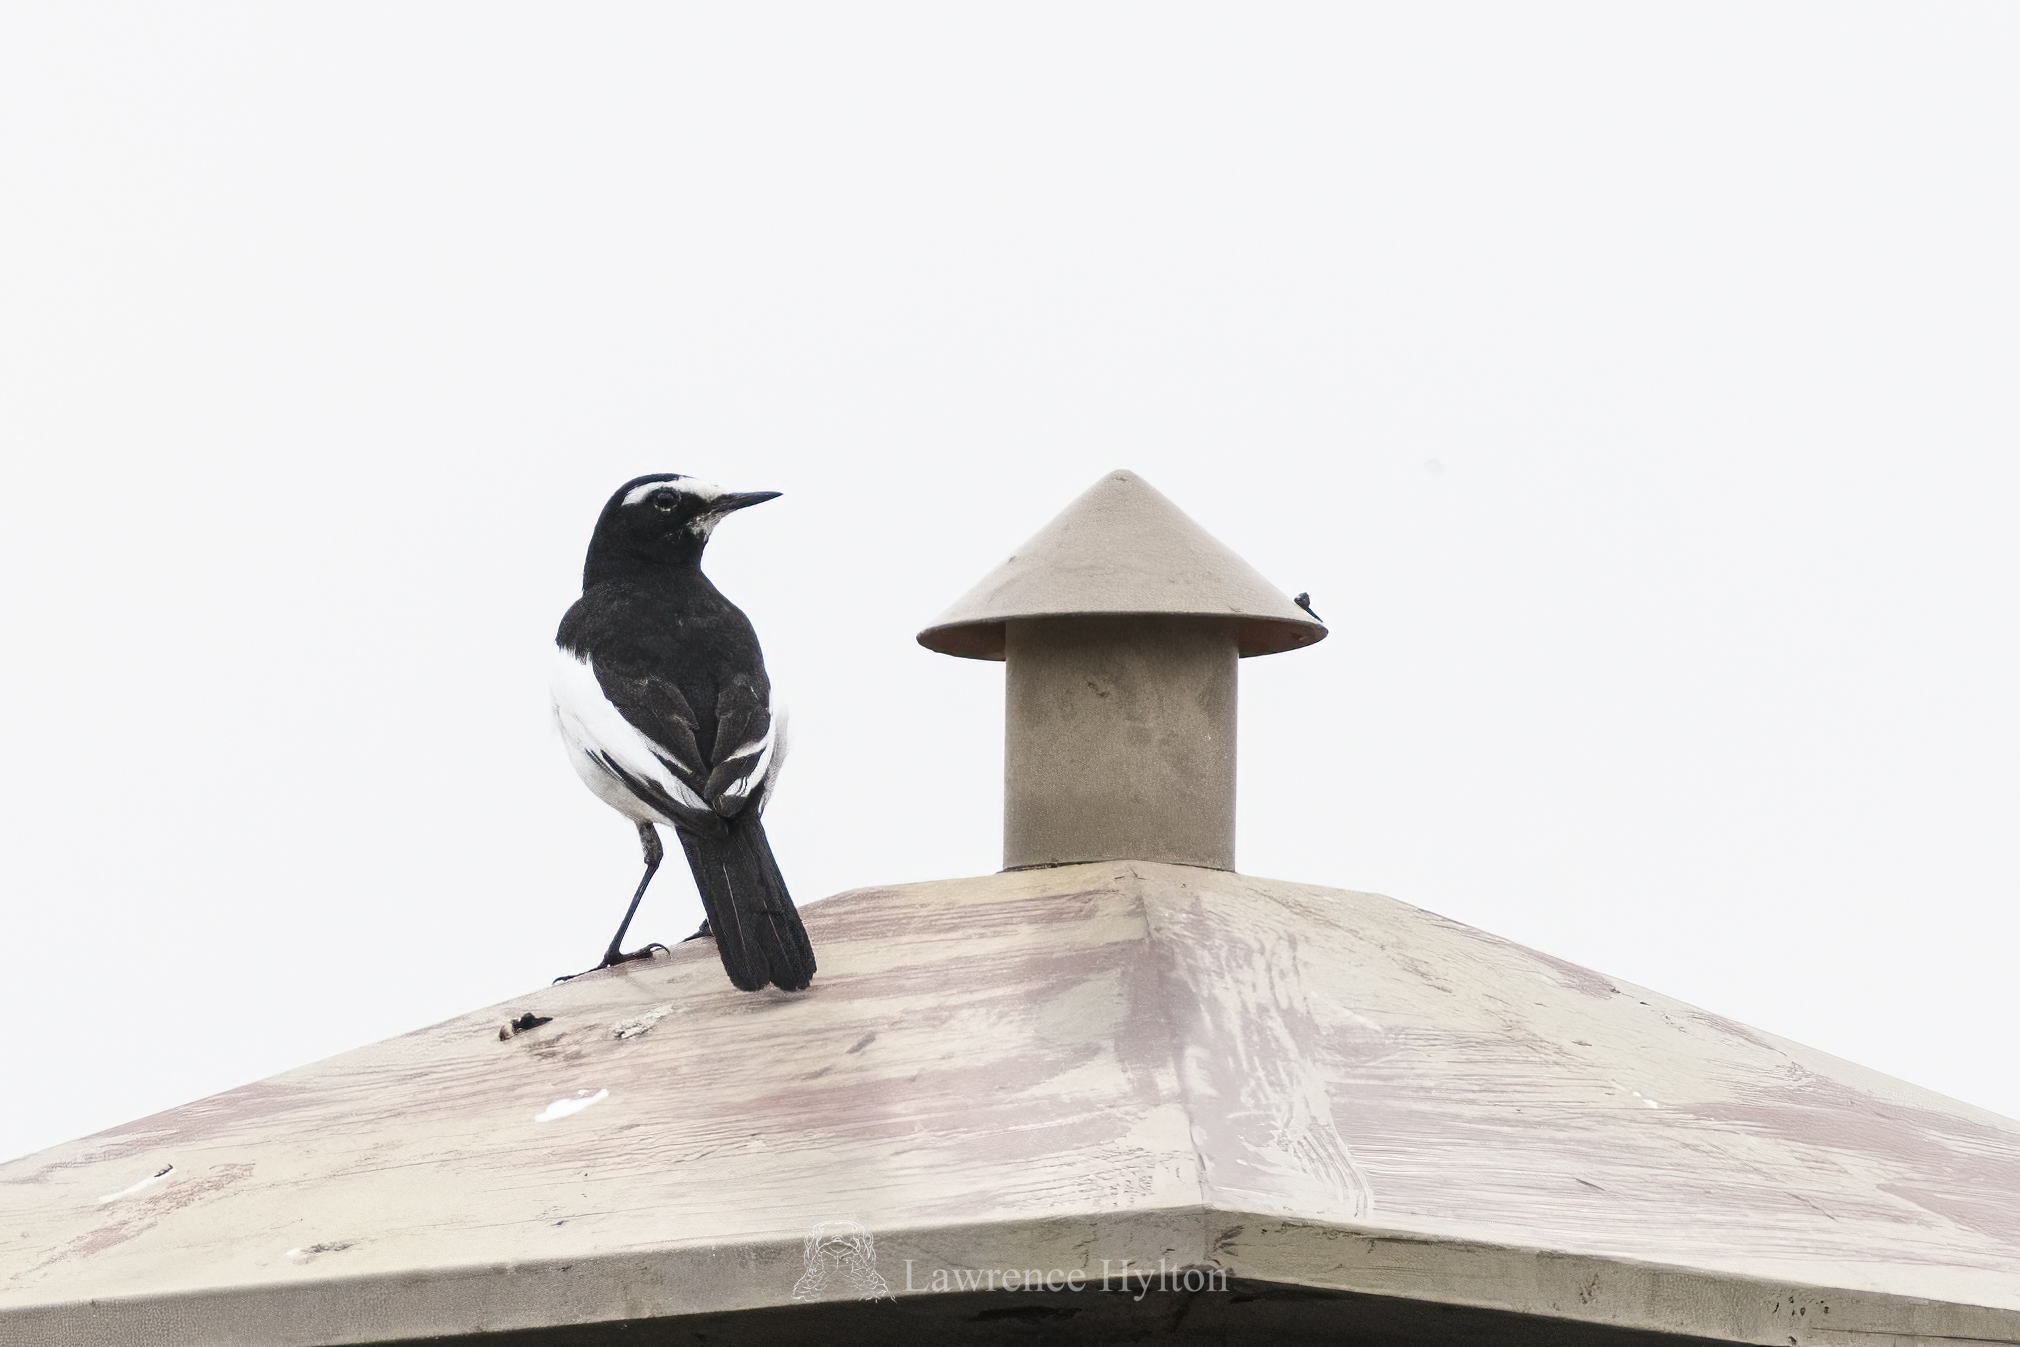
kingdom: Animalia
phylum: Chordata
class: Aves
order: Passeriformes
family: Motacillidae
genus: Motacilla
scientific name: Motacilla grandis
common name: Japanese wagtail
